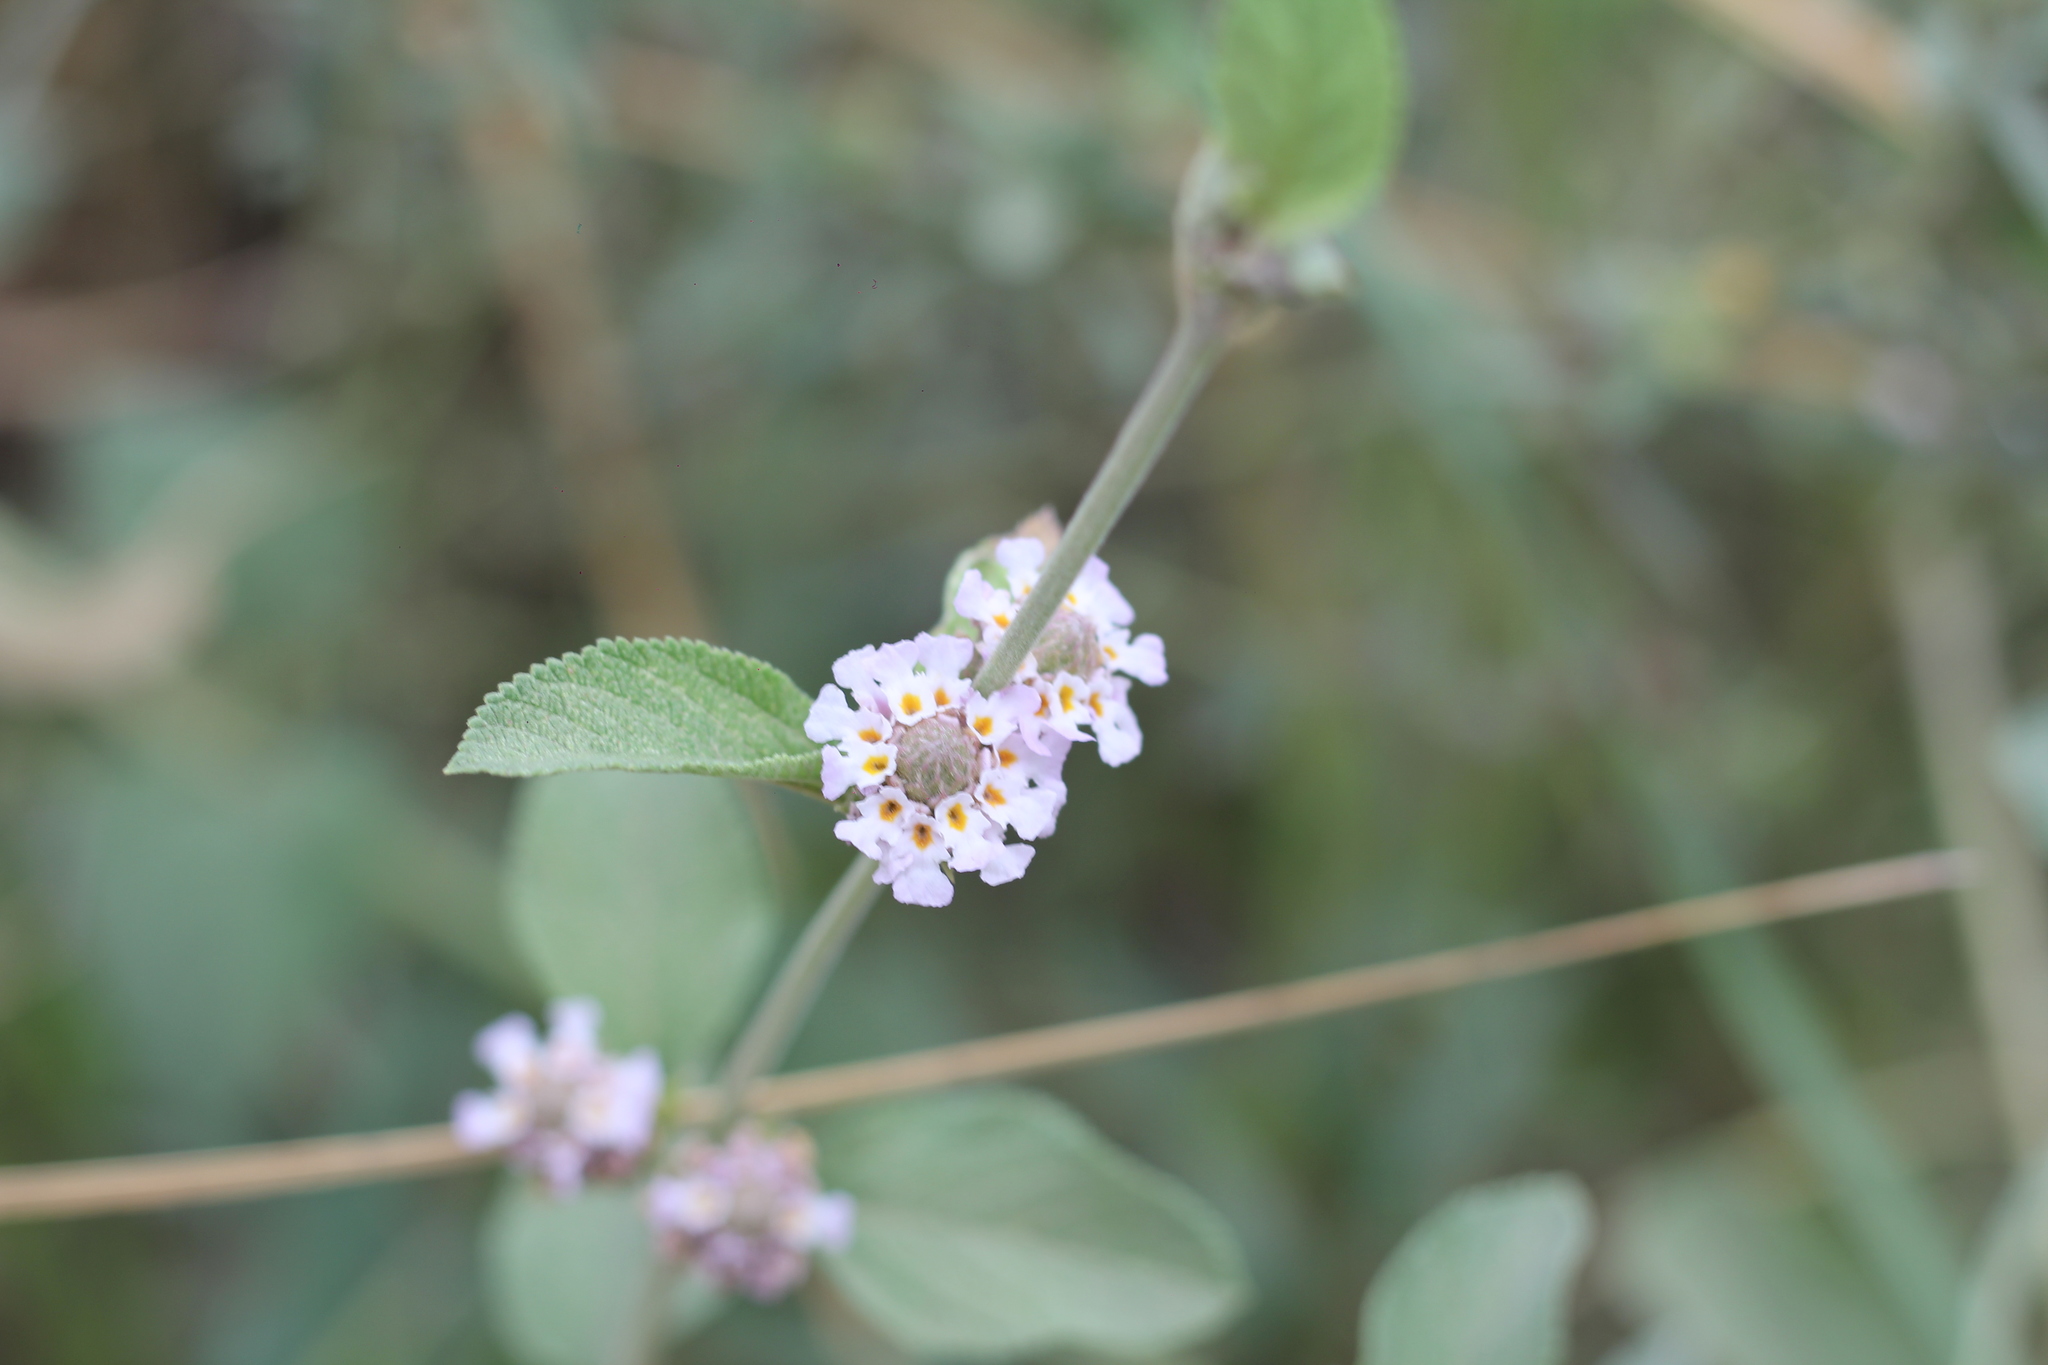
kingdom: Plantae
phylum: Tracheophyta
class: Magnoliopsida
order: Lamiales
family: Verbenaceae
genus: Lippia
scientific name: Lippia alba
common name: Bushy matgrass
